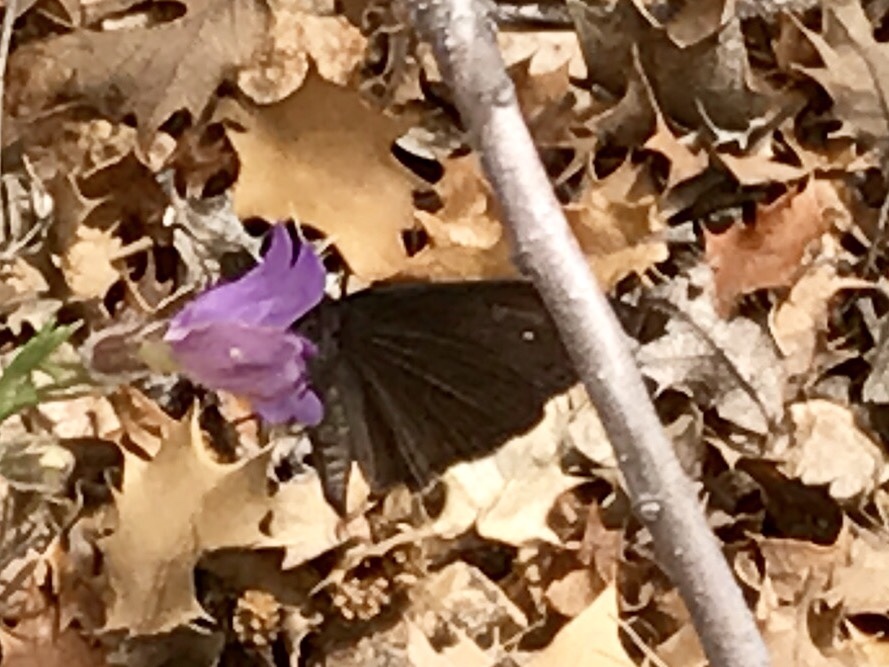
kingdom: Animalia
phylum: Arthropoda
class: Insecta
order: Lepidoptera
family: Hesperiidae
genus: Erynnis
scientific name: Erynnis meridianus
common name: Meridian duskywing
